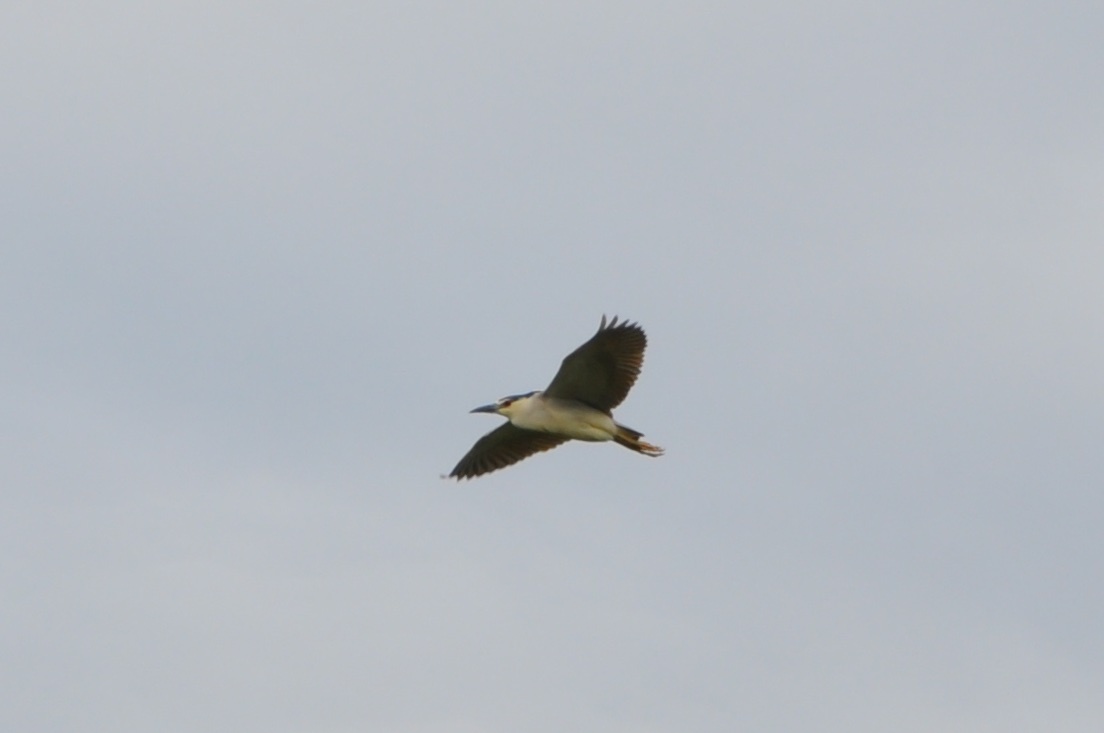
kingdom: Animalia
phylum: Chordata
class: Aves
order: Pelecaniformes
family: Ardeidae
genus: Nycticorax
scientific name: Nycticorax nycticorax
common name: Black-crowned night heron
